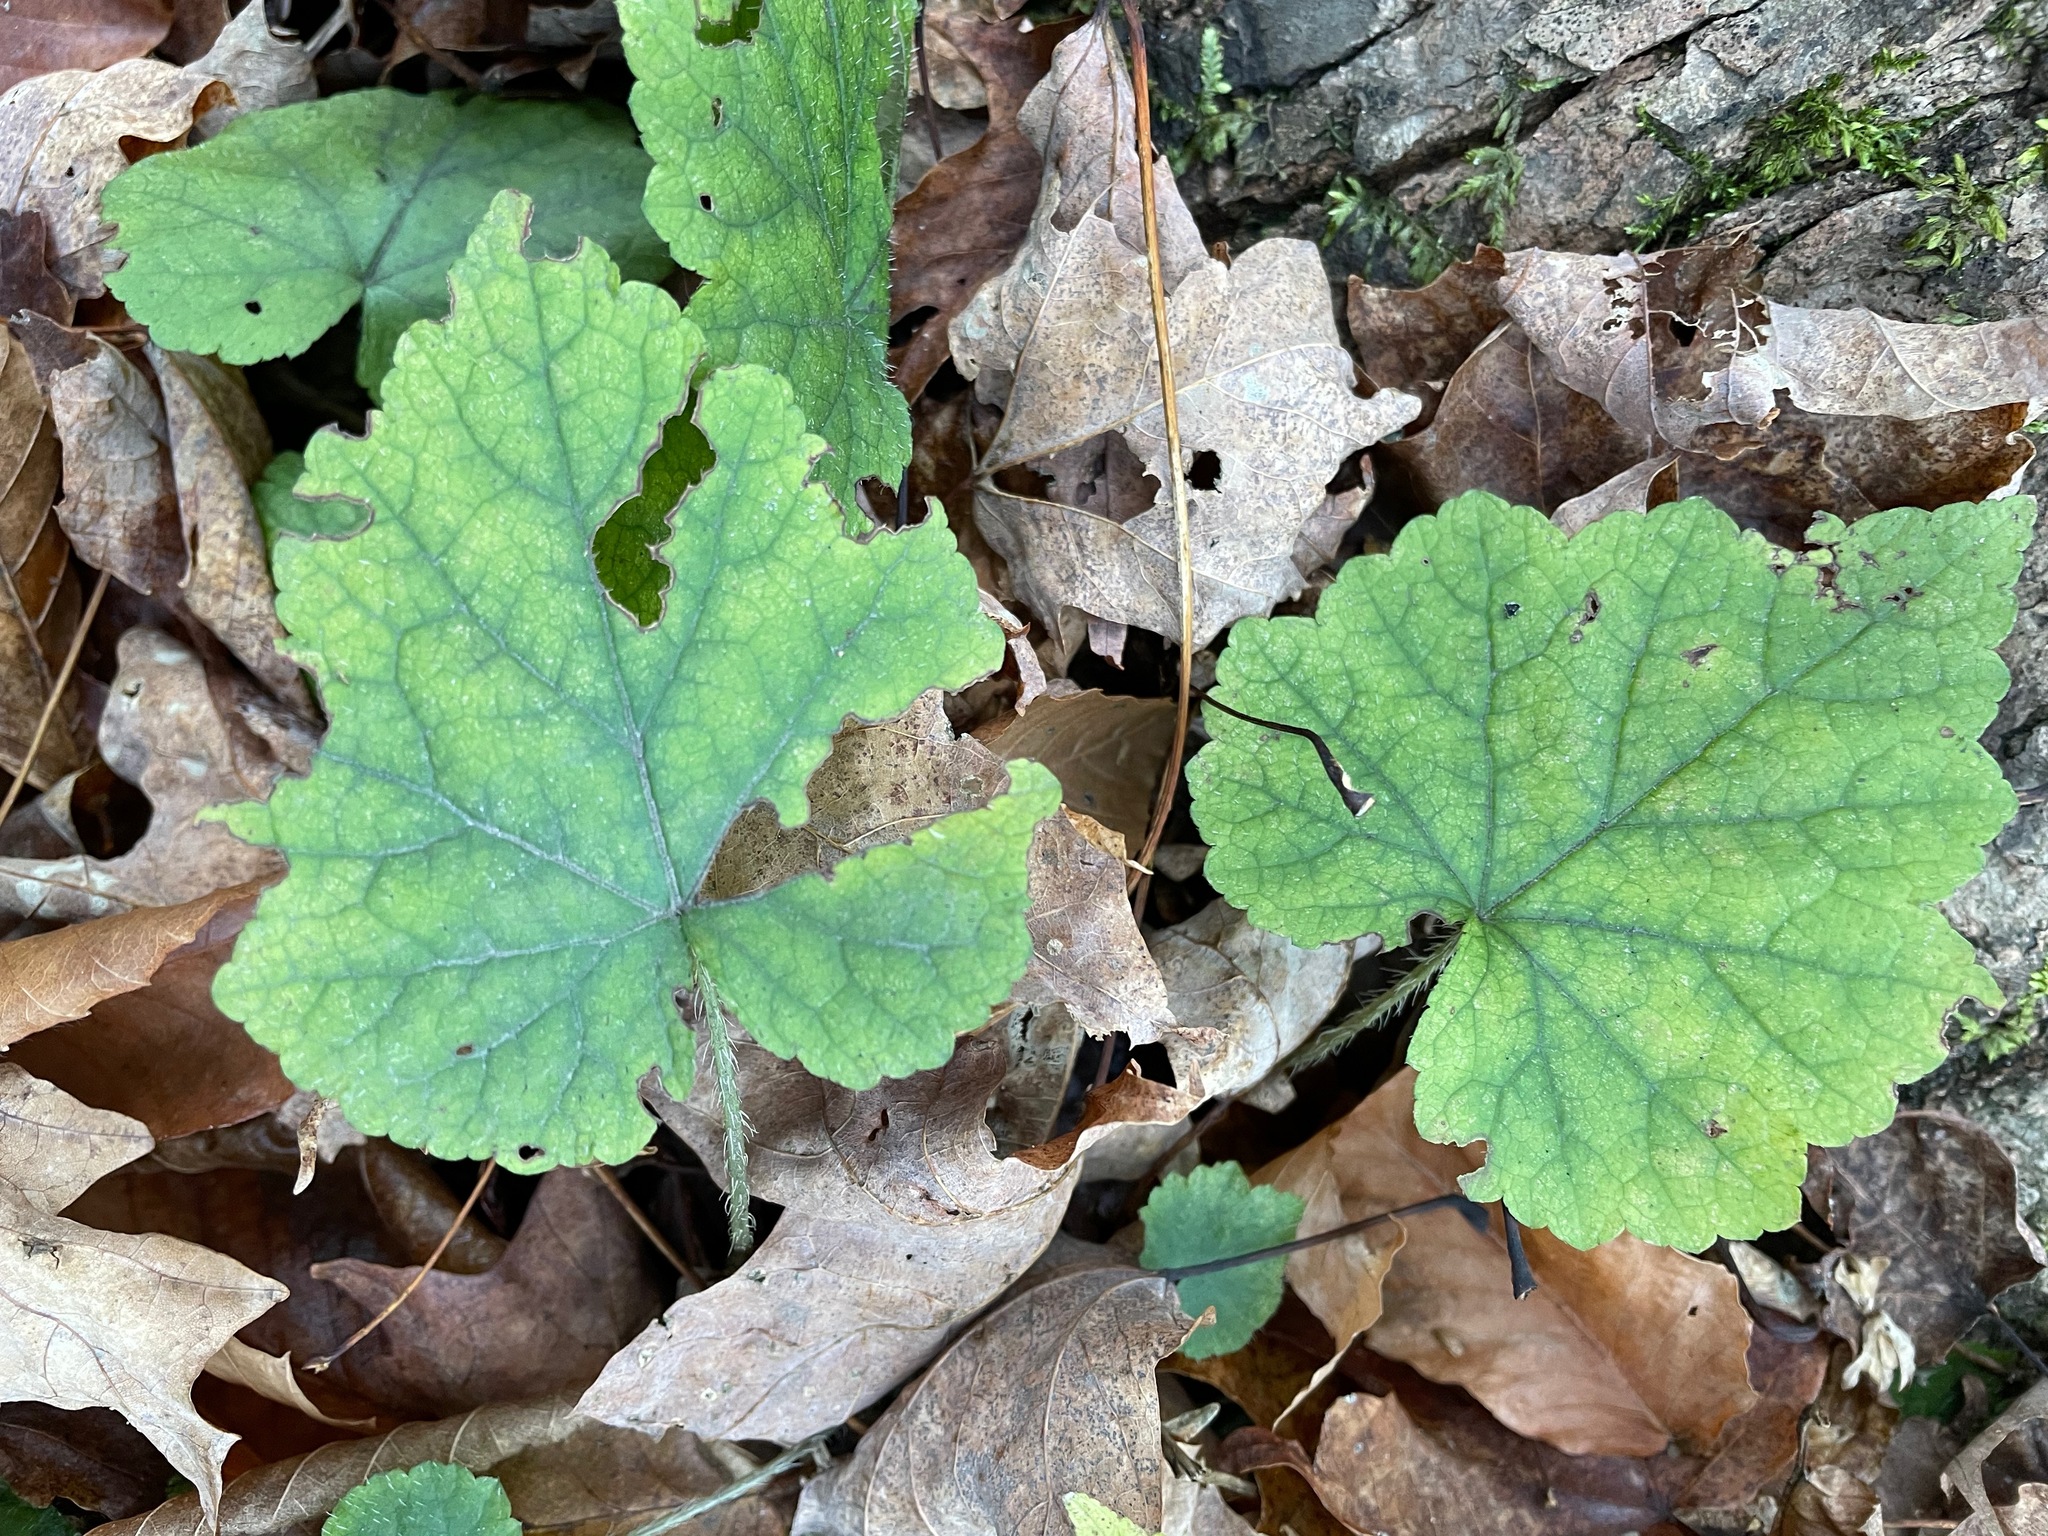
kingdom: Plantae
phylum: Tracheophyta
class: Magnoliopsida
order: Saxifragales
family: Saxifragaceae
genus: Mitella
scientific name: Mitella diphylla
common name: Coolwort
